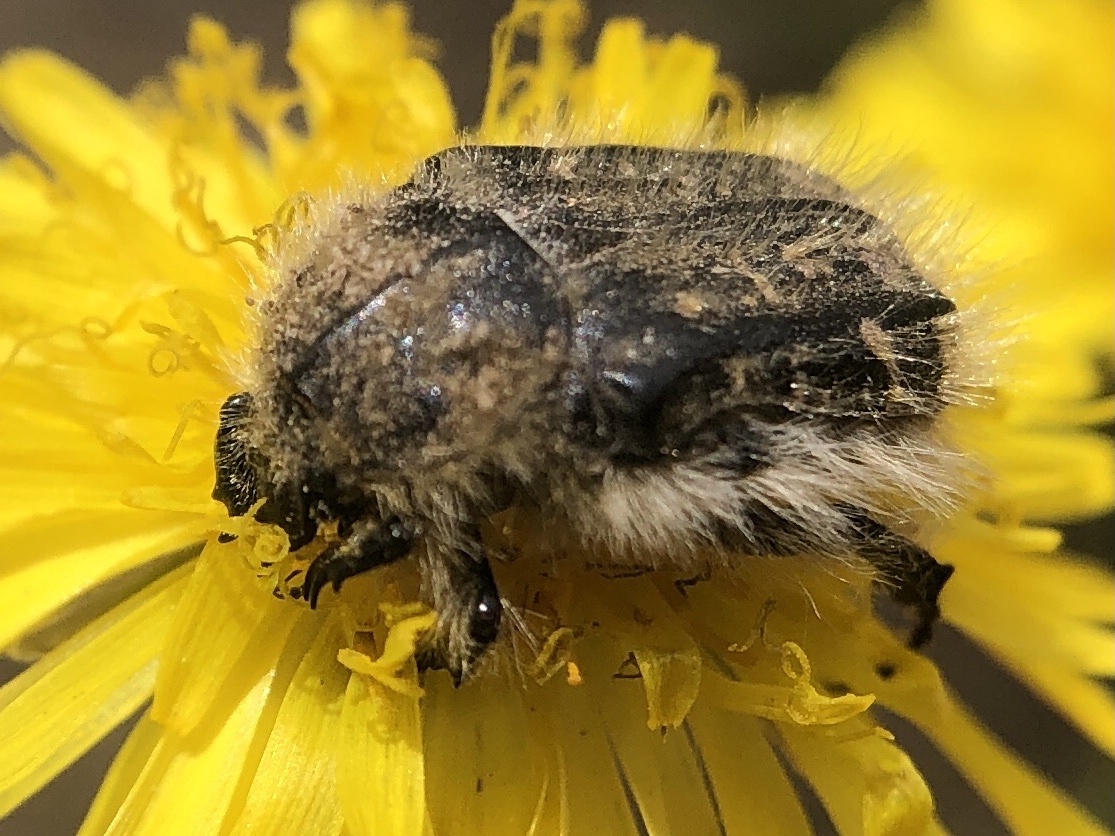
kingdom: Animalia
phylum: Arthropoda
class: Insecta
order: Coleoptera
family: Scarabaeidae
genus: Tropinota
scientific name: Tropinota squalida
